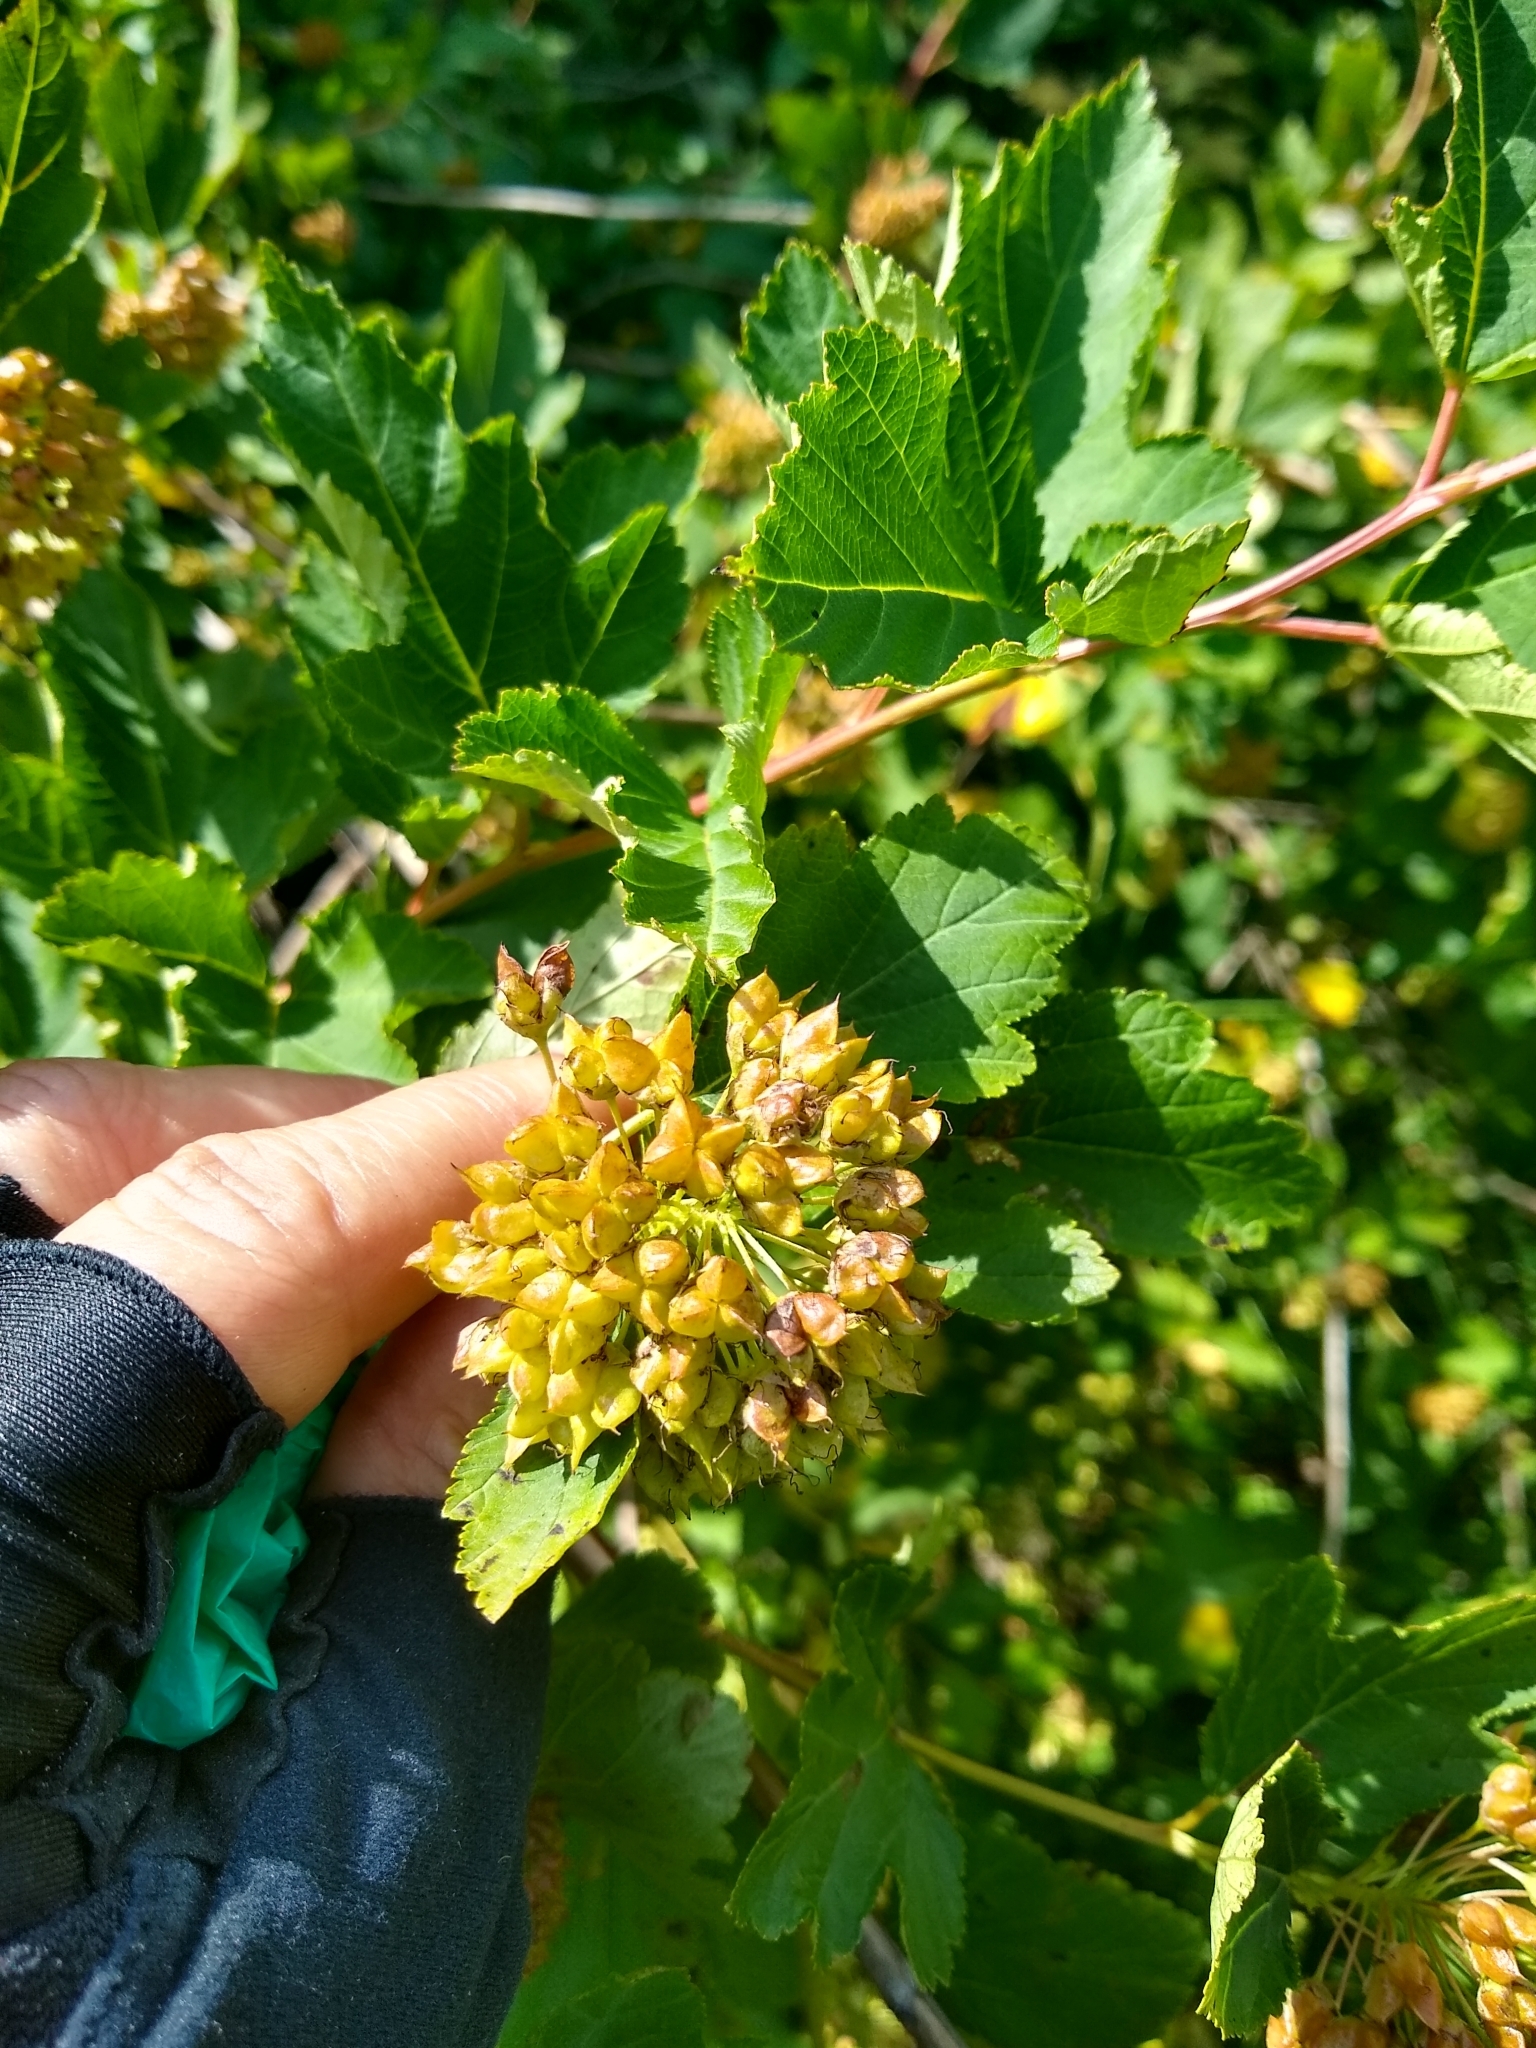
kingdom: Plantae
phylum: Tracheophyta
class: Magnoliopsida
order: Rosales
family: Rosaceae
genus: Physocarpus
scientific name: Physocarpus opulifolius
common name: Ninebark
